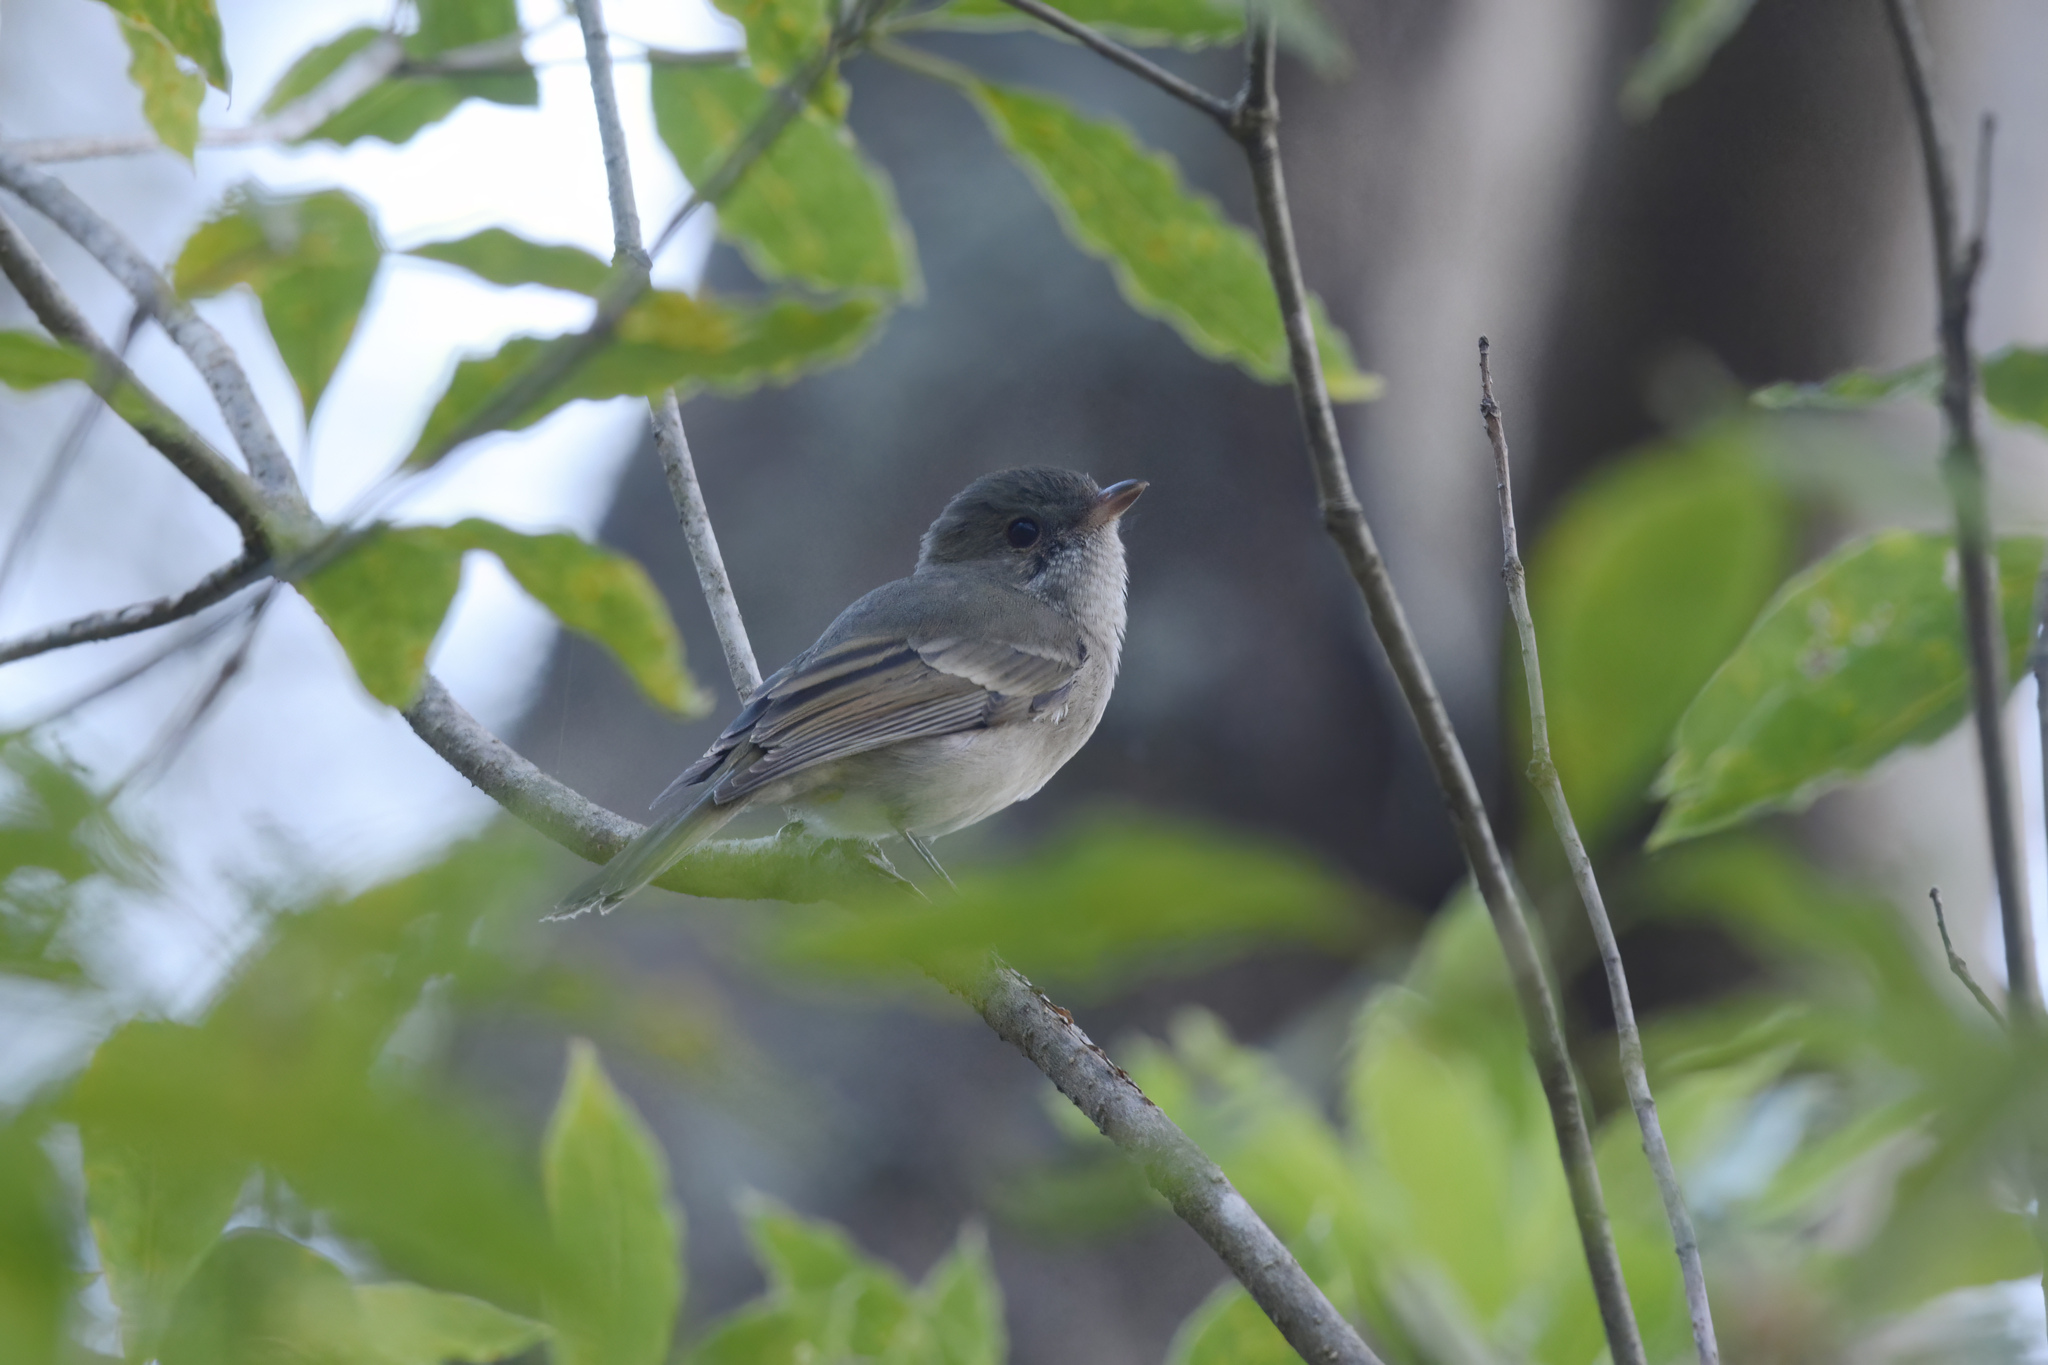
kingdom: Animalia
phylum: Chordata
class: Aves
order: Passeriformes
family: Pachycephalidae
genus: Pachycephala
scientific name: Pachycephala pectoralis
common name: Australian golden whistler
